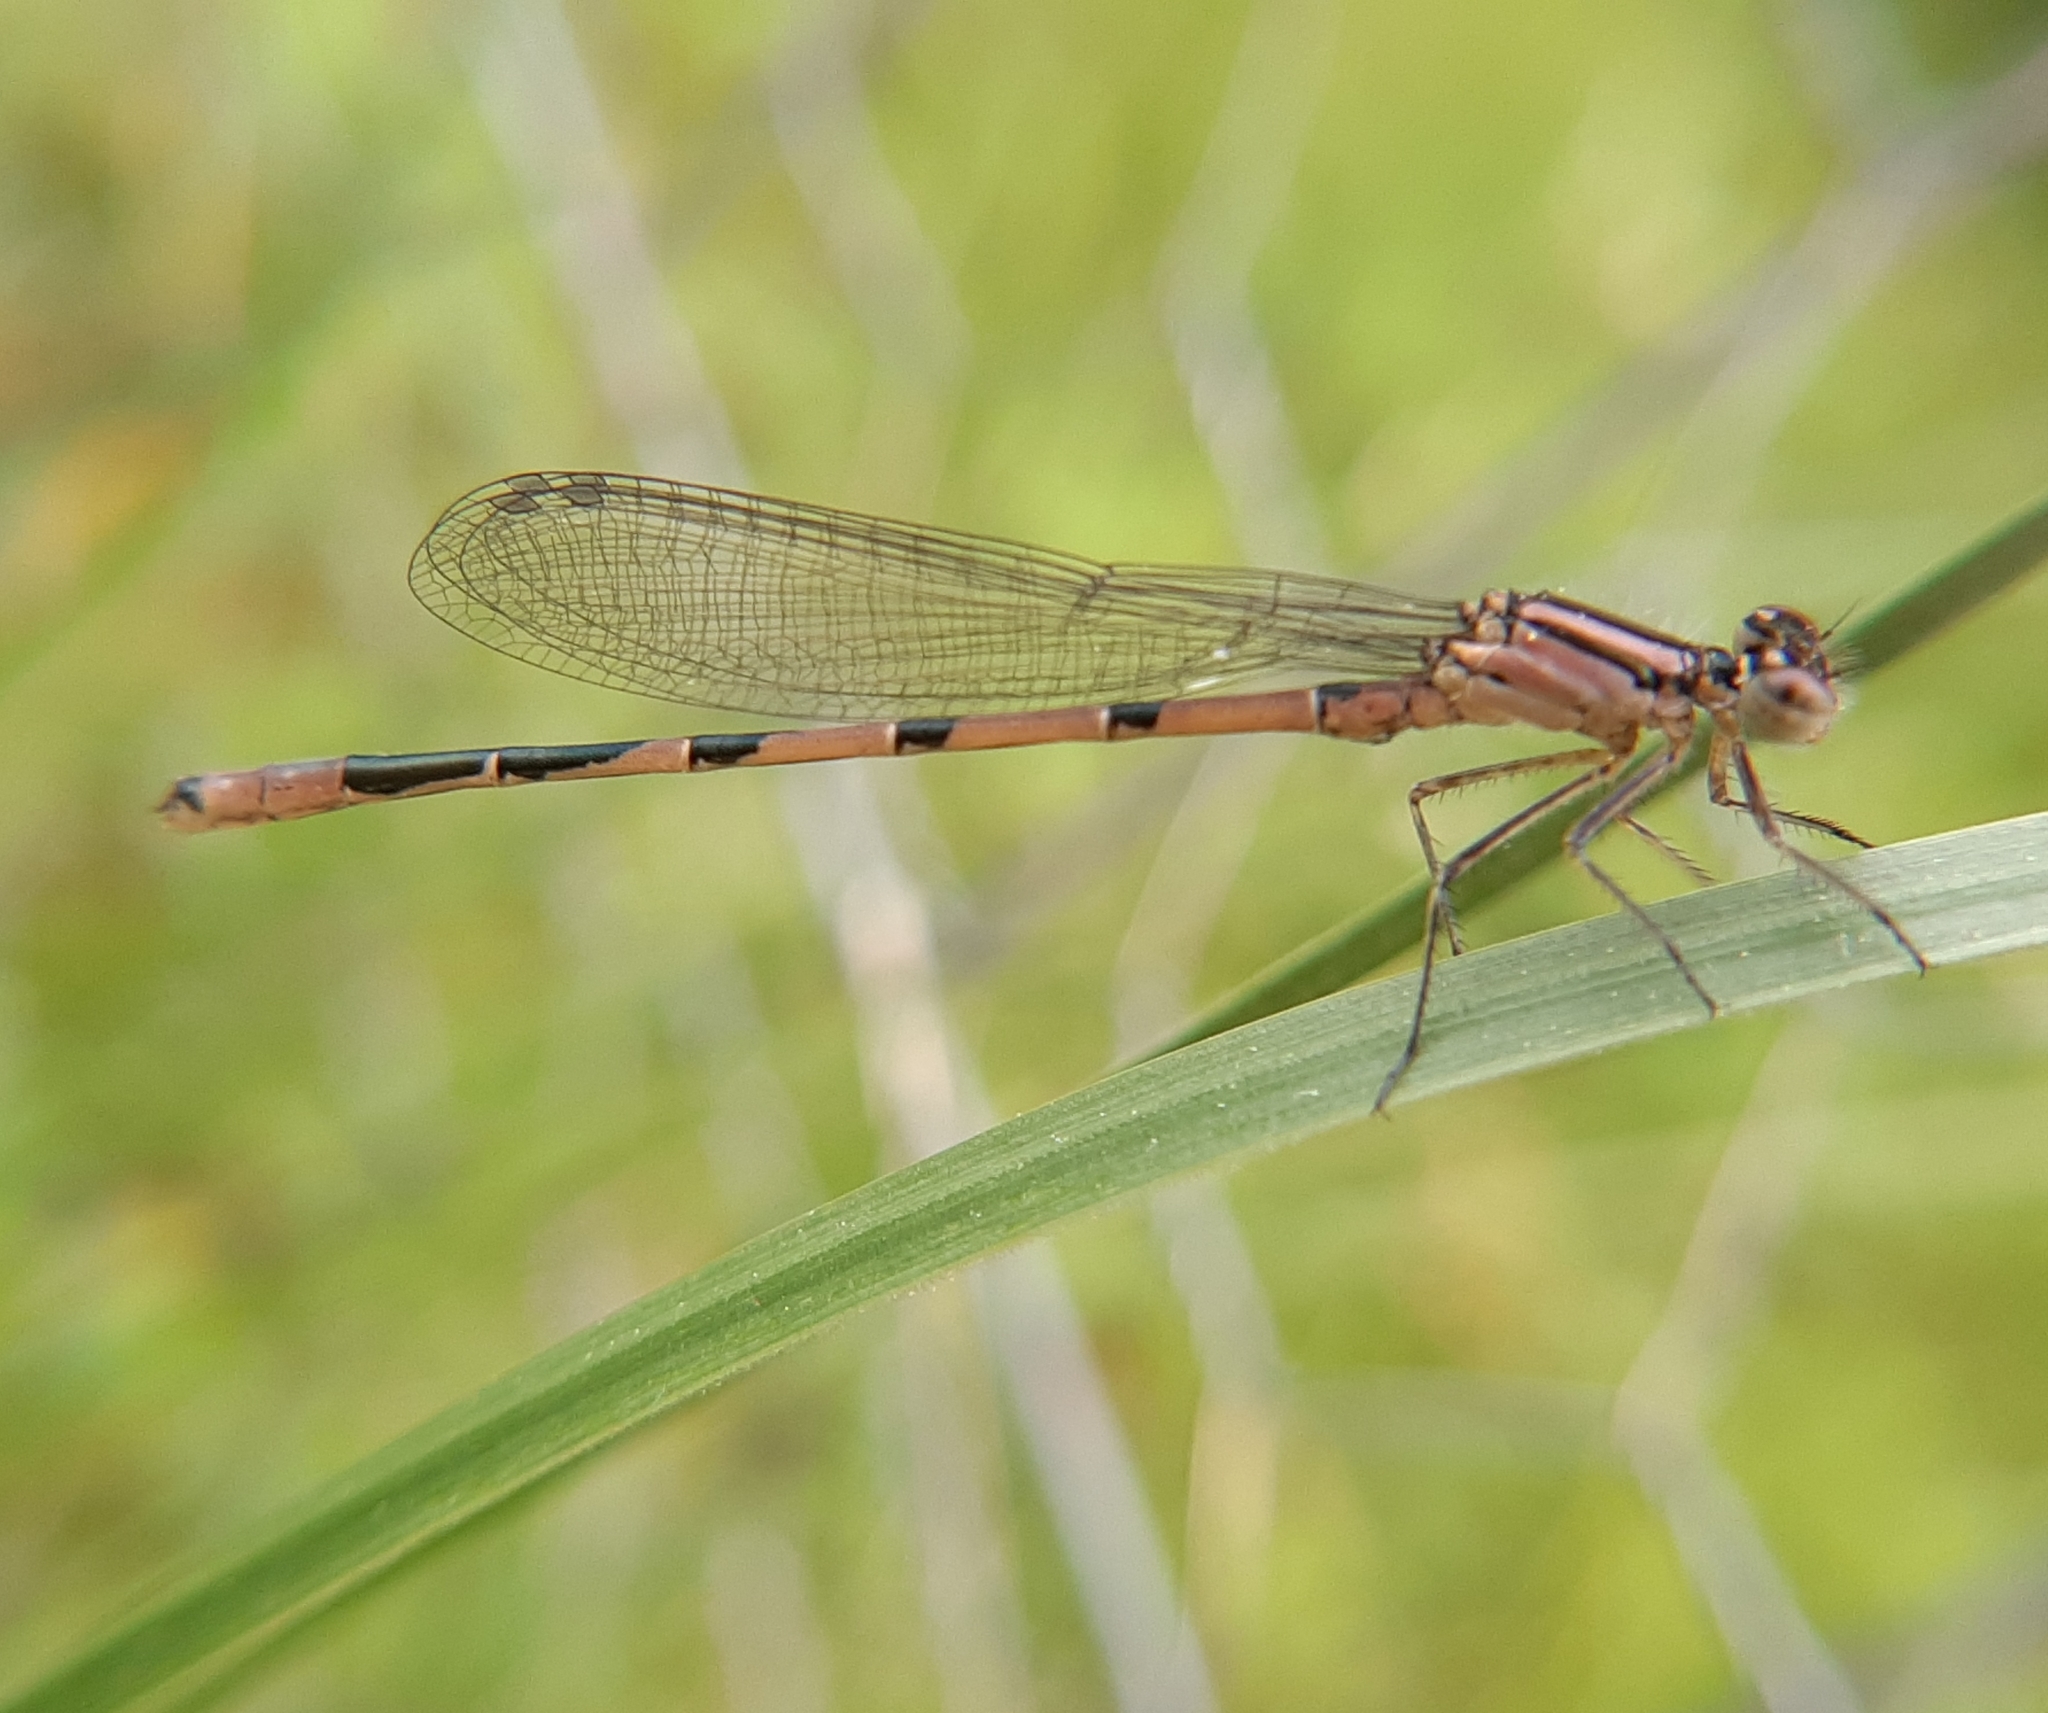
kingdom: Animalia
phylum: Arthropoda
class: Insecta
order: Odonata
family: Coenagrionidae
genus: Enallagma
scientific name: Enallagma hageni
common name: Hagen's bluet
